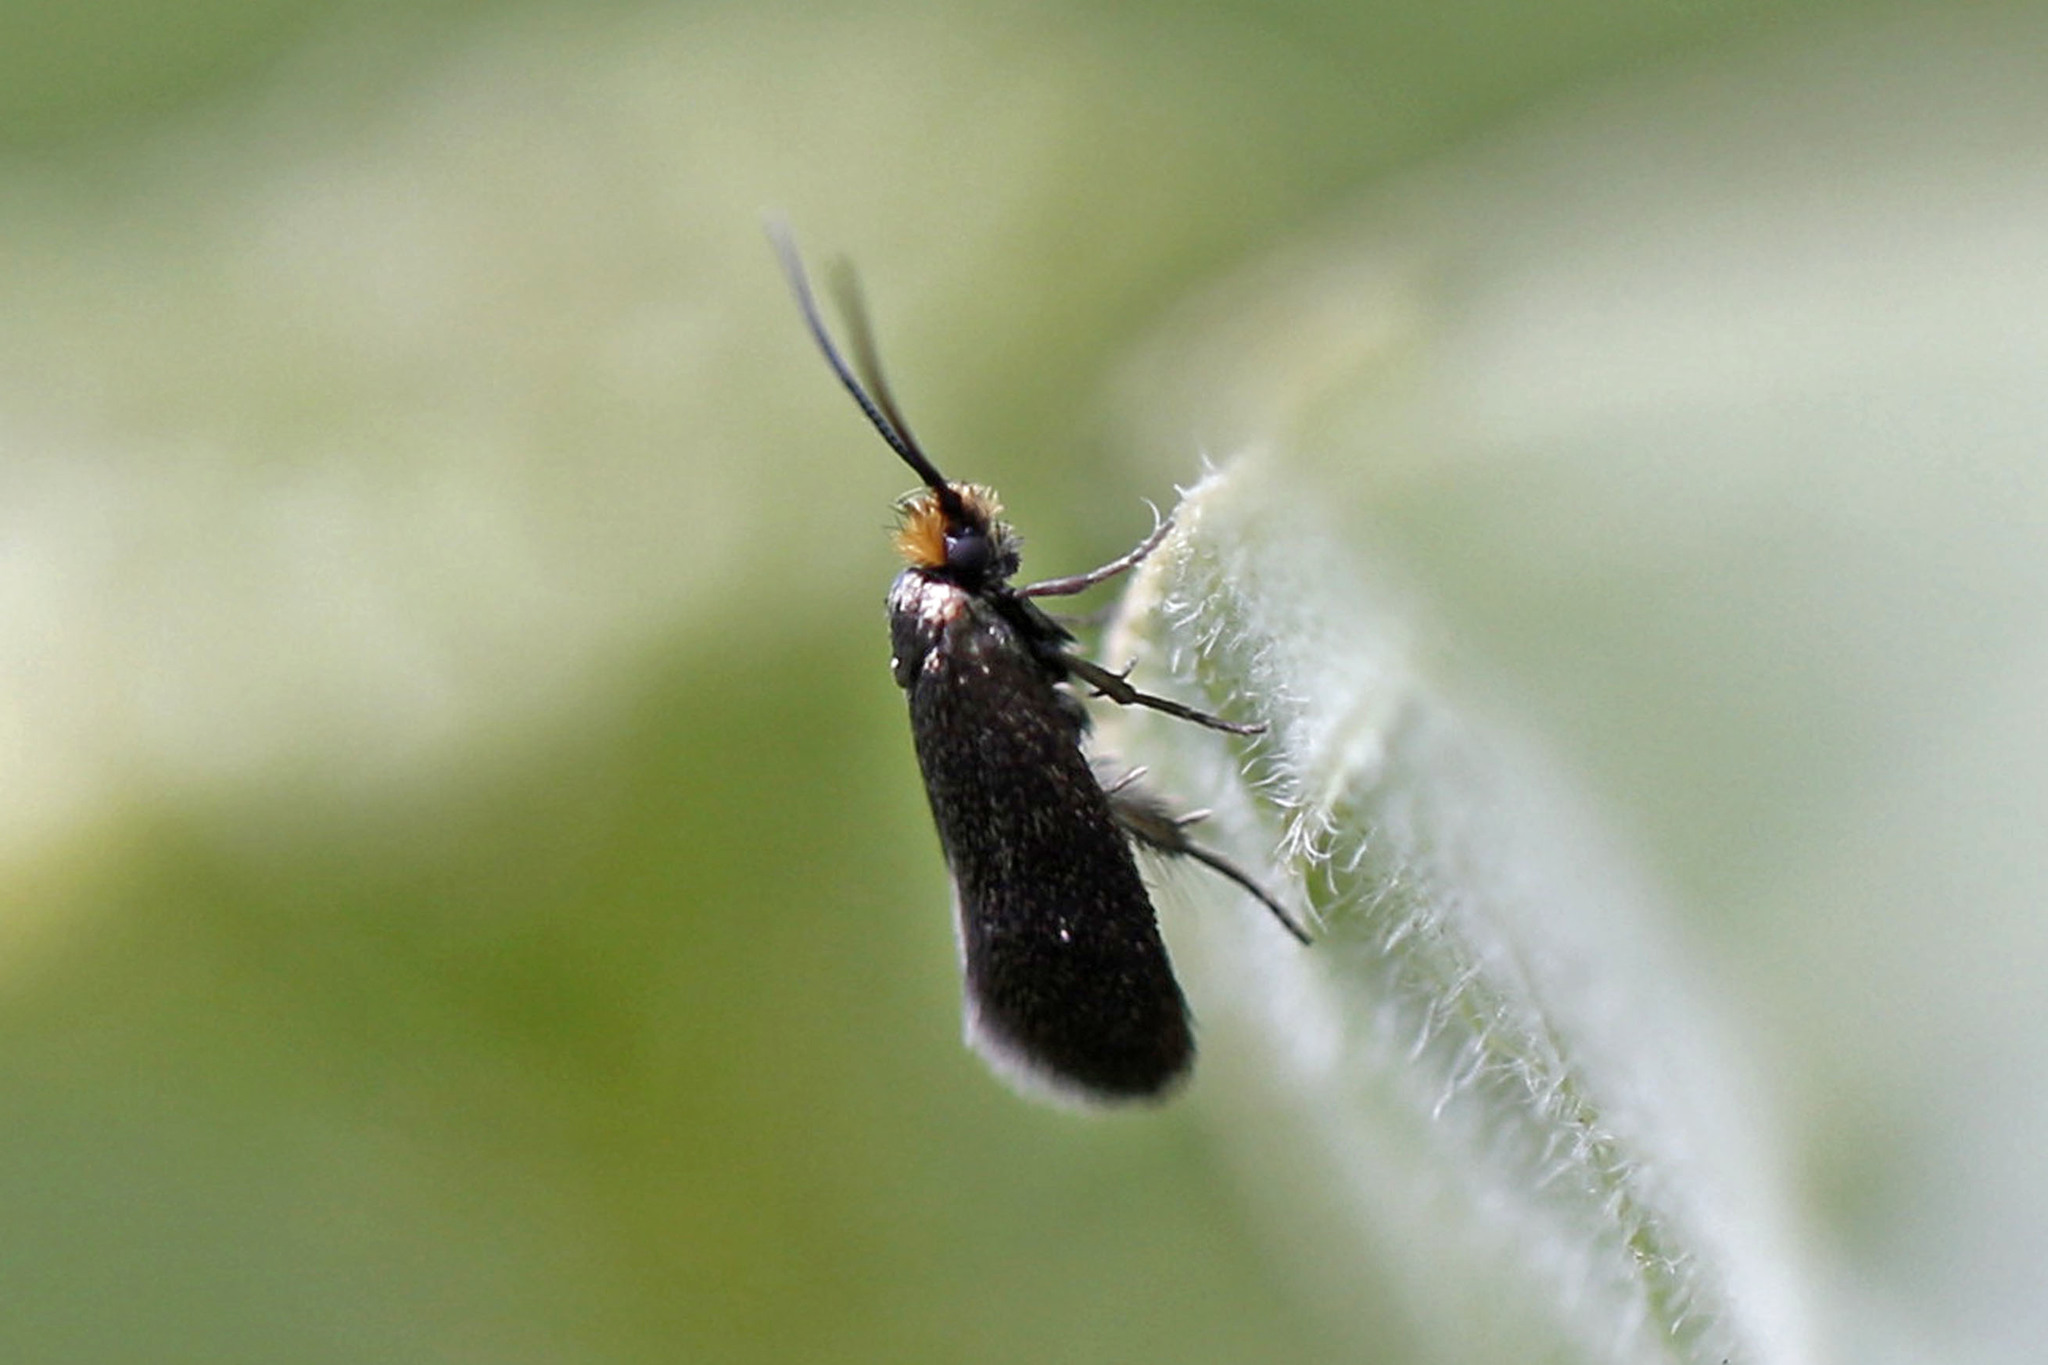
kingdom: Animalia
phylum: Arthropoda
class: Insecta
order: Lepidoptera
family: Micropterigidae
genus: Epimartyria
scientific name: Epimartyria auricrinella
